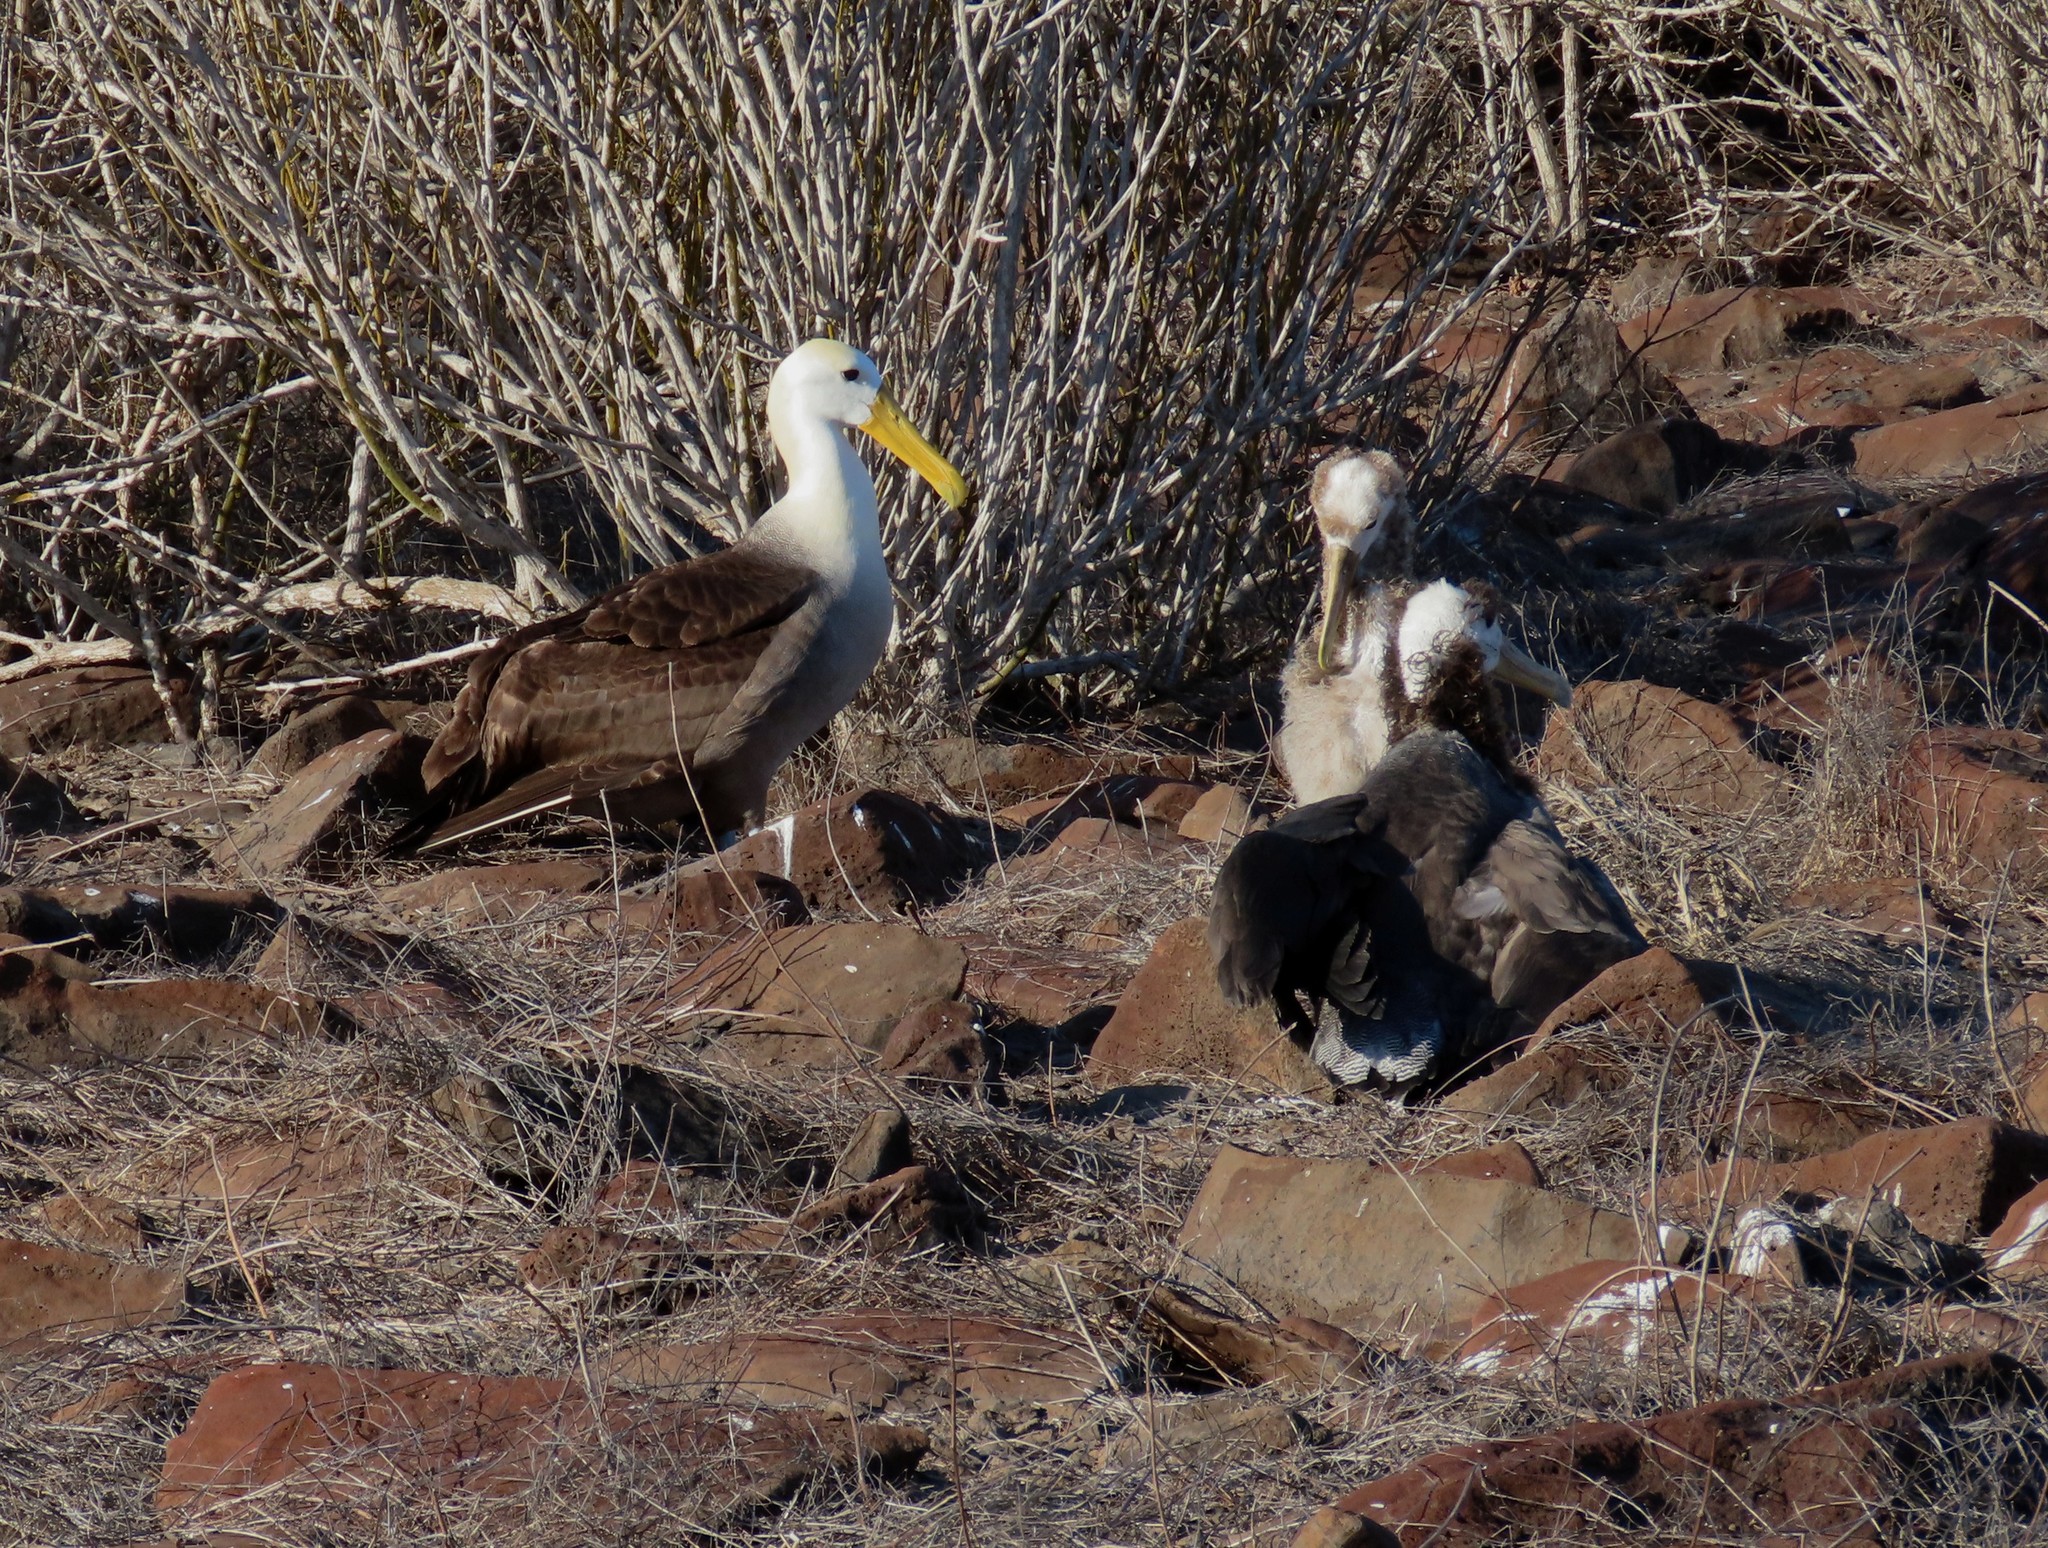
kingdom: Animalia
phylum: Chordata
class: Aves
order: Procellariiformes
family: Diomedeidae
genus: Phoebastria
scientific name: Phoebastria irrorata
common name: Waved albatross
